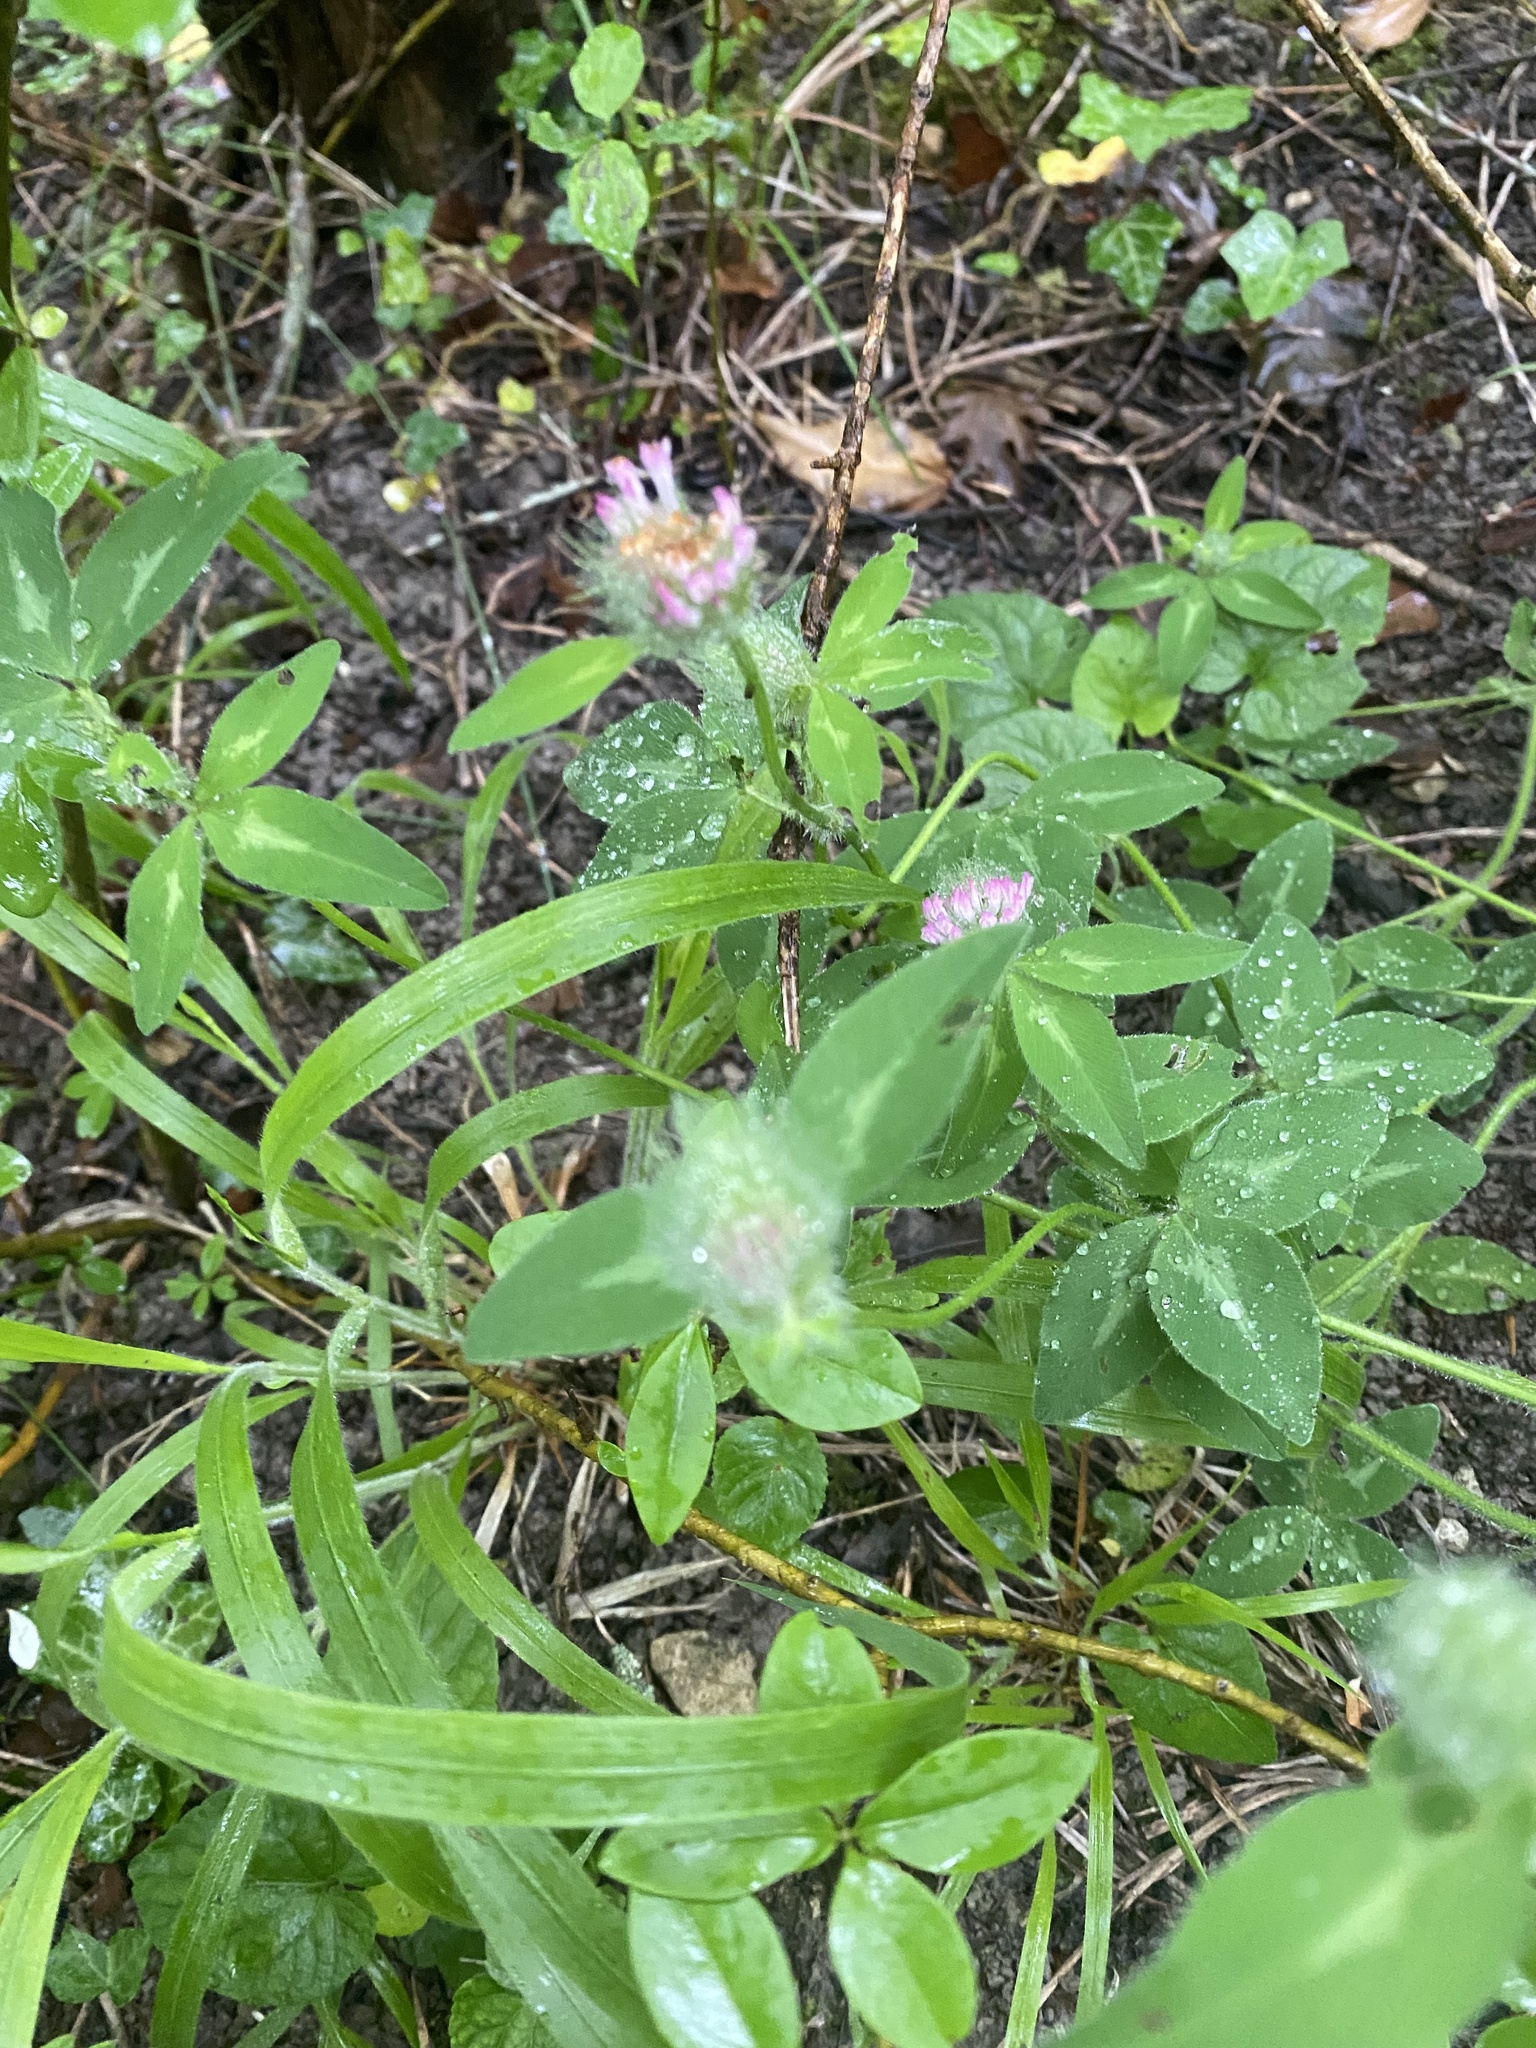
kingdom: Plantae
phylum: Tracheophyta
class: Magnoliopsida
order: Fabales
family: Fabaceae
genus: Trifolium
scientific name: Trifolium pratense
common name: Red clover
